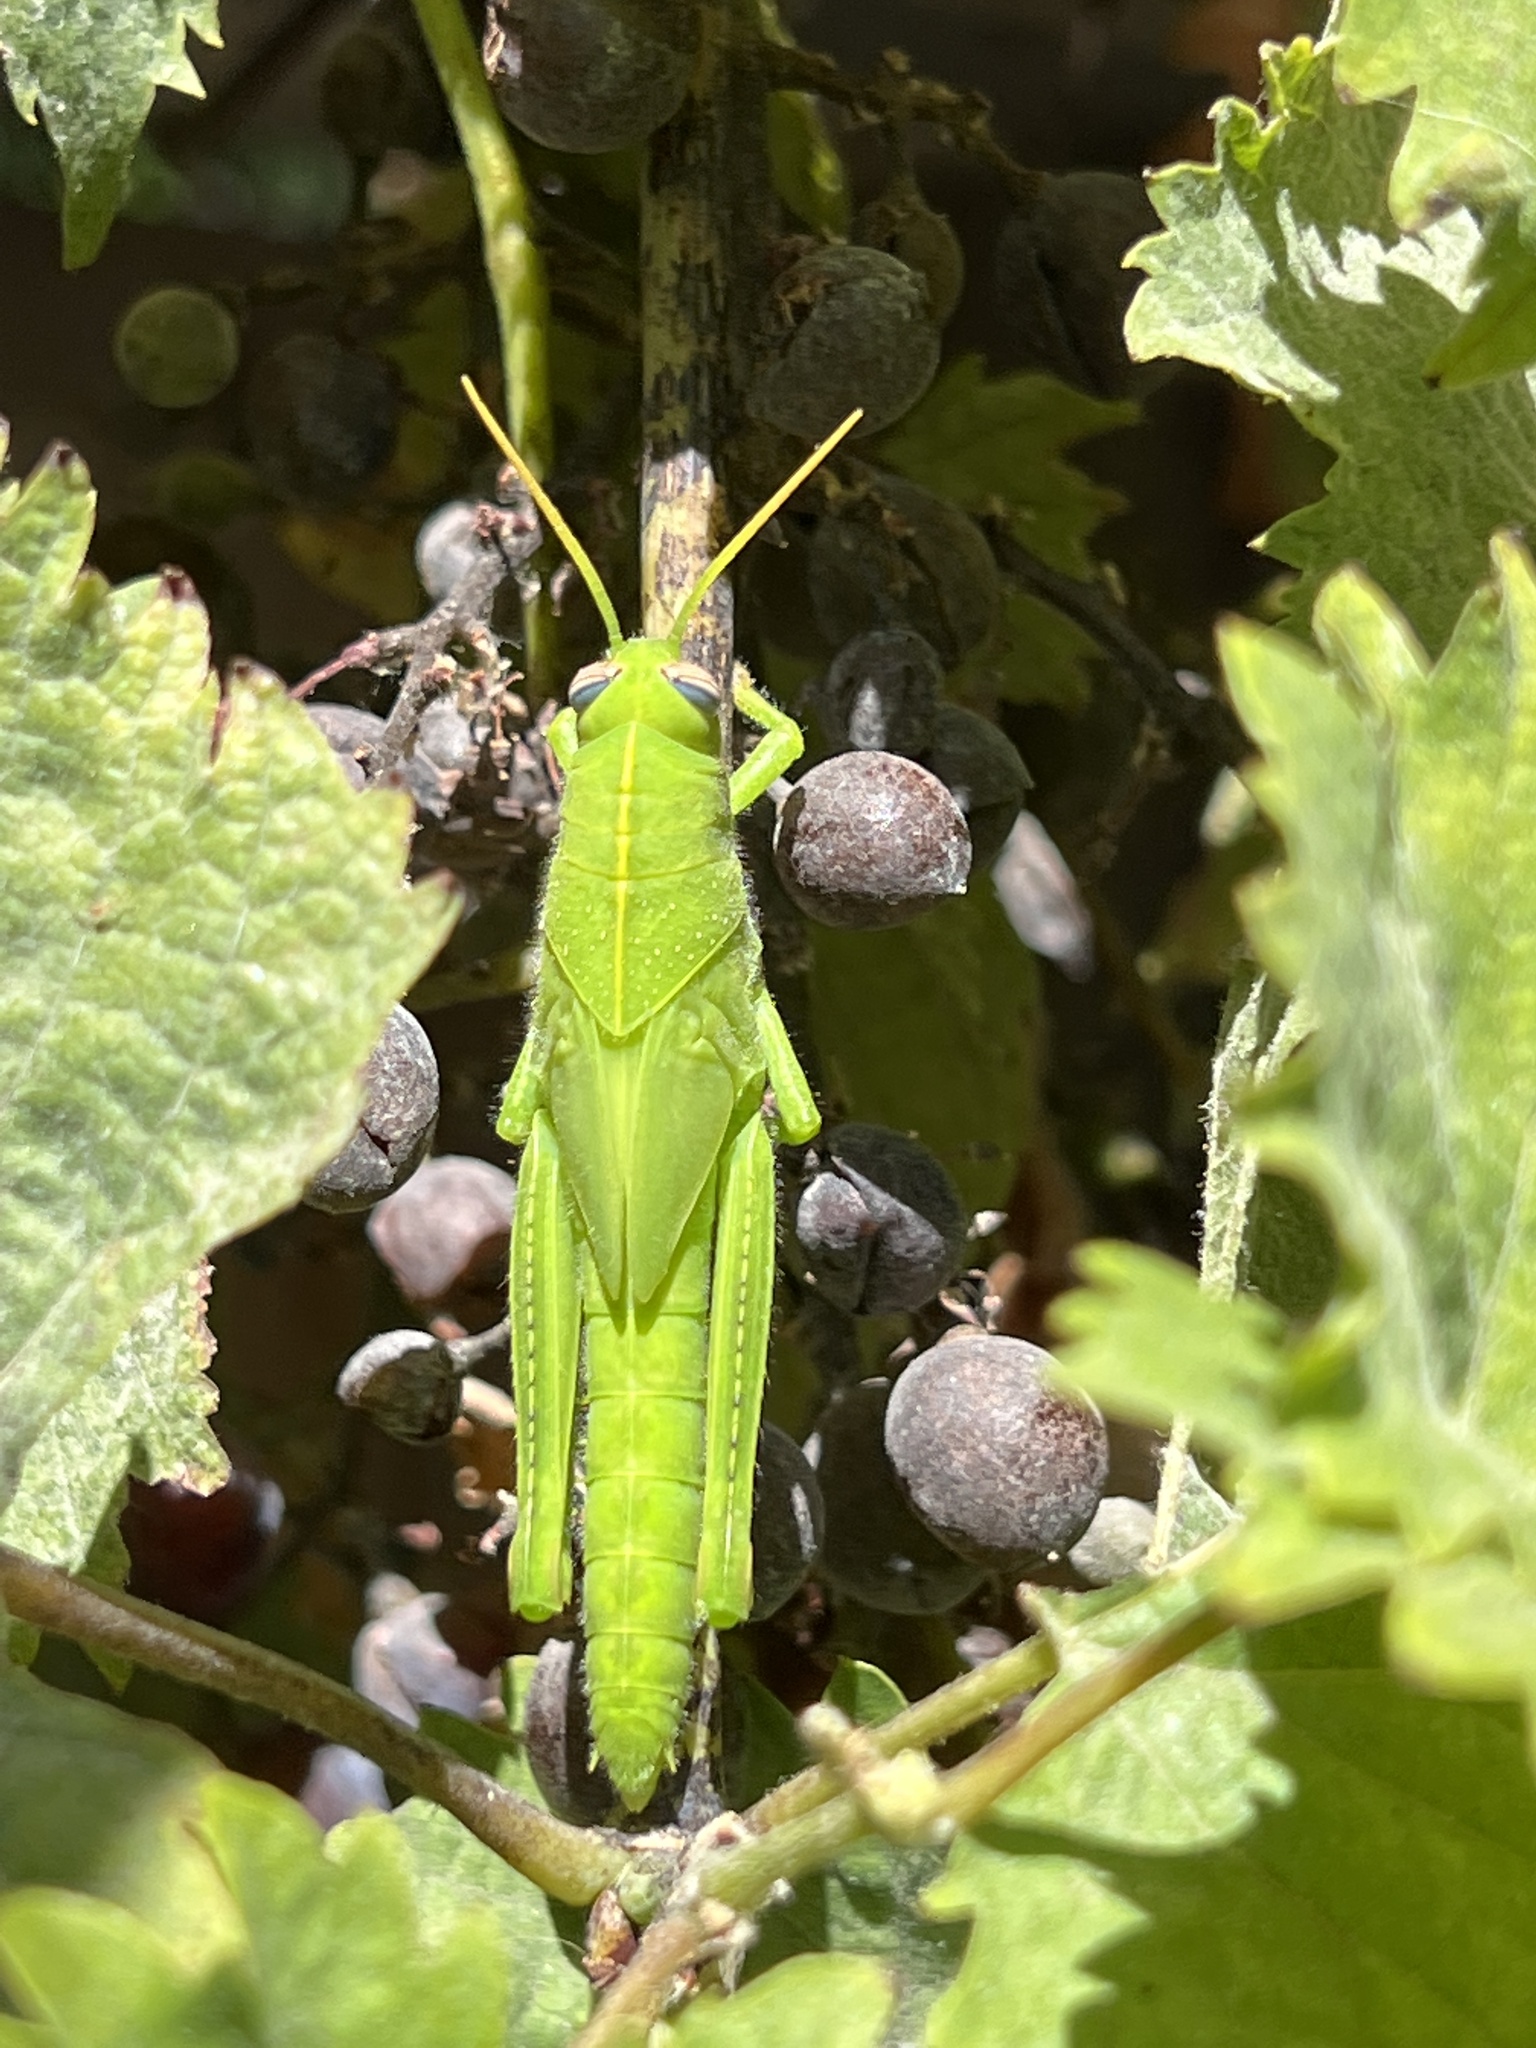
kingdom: Animalia
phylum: Arthropoda
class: Insecta
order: Orthoptera
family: Acrididae
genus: Anacridium
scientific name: Anacridium aegyptium
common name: Egyptian grasshopper
